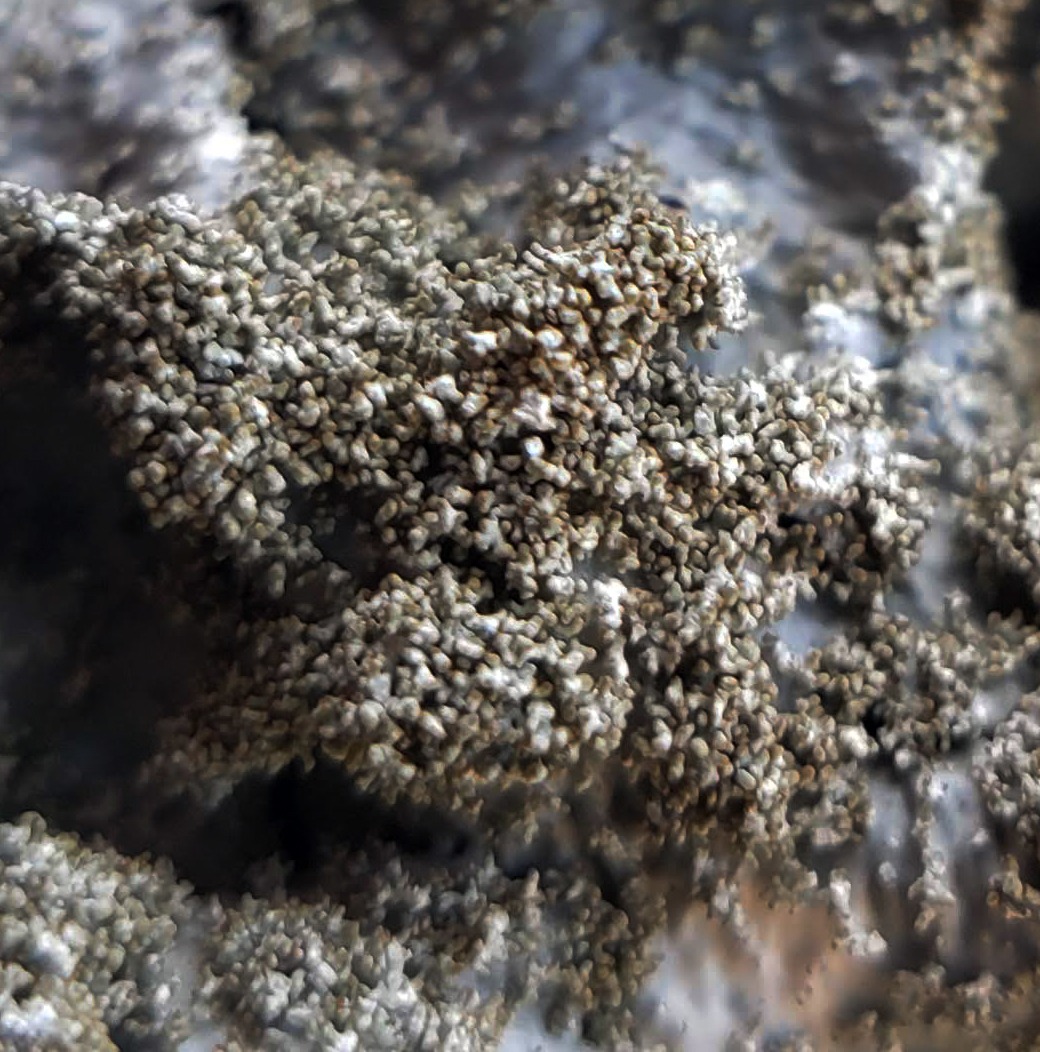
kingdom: Fungi
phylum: Ascomycota
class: Lecanoromycetes
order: Lecanorales
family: Parmeliaceae
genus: Punctelia
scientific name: Punctelia rudecta
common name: Rough speckled shield lichen
